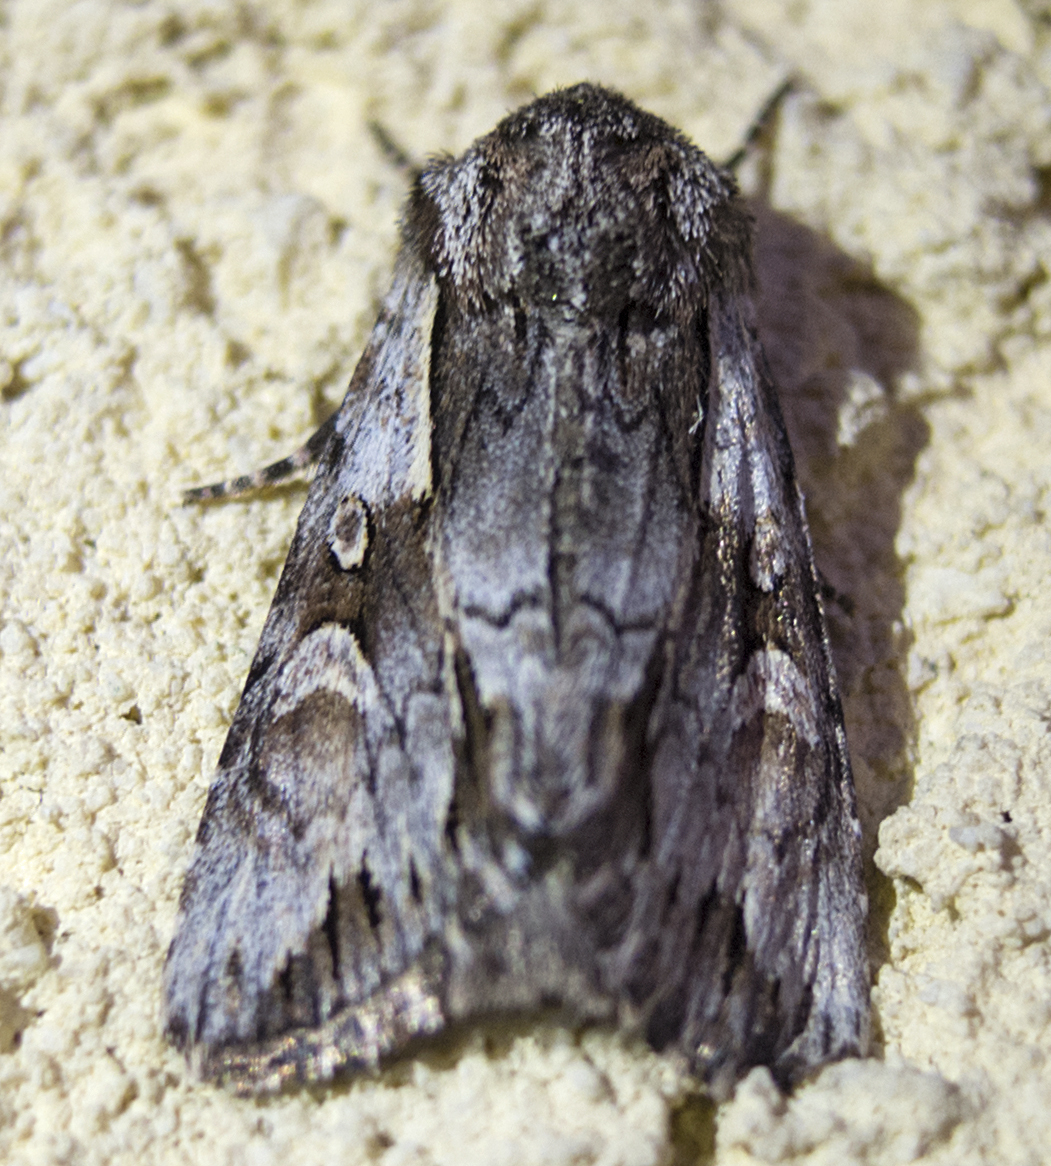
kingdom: Animalia
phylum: Arthropoda
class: Insecta
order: Lepidoptera
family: Noctuidae
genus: Chloantha
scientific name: Chloantha hyperici
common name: Pale-shouldered cloud
